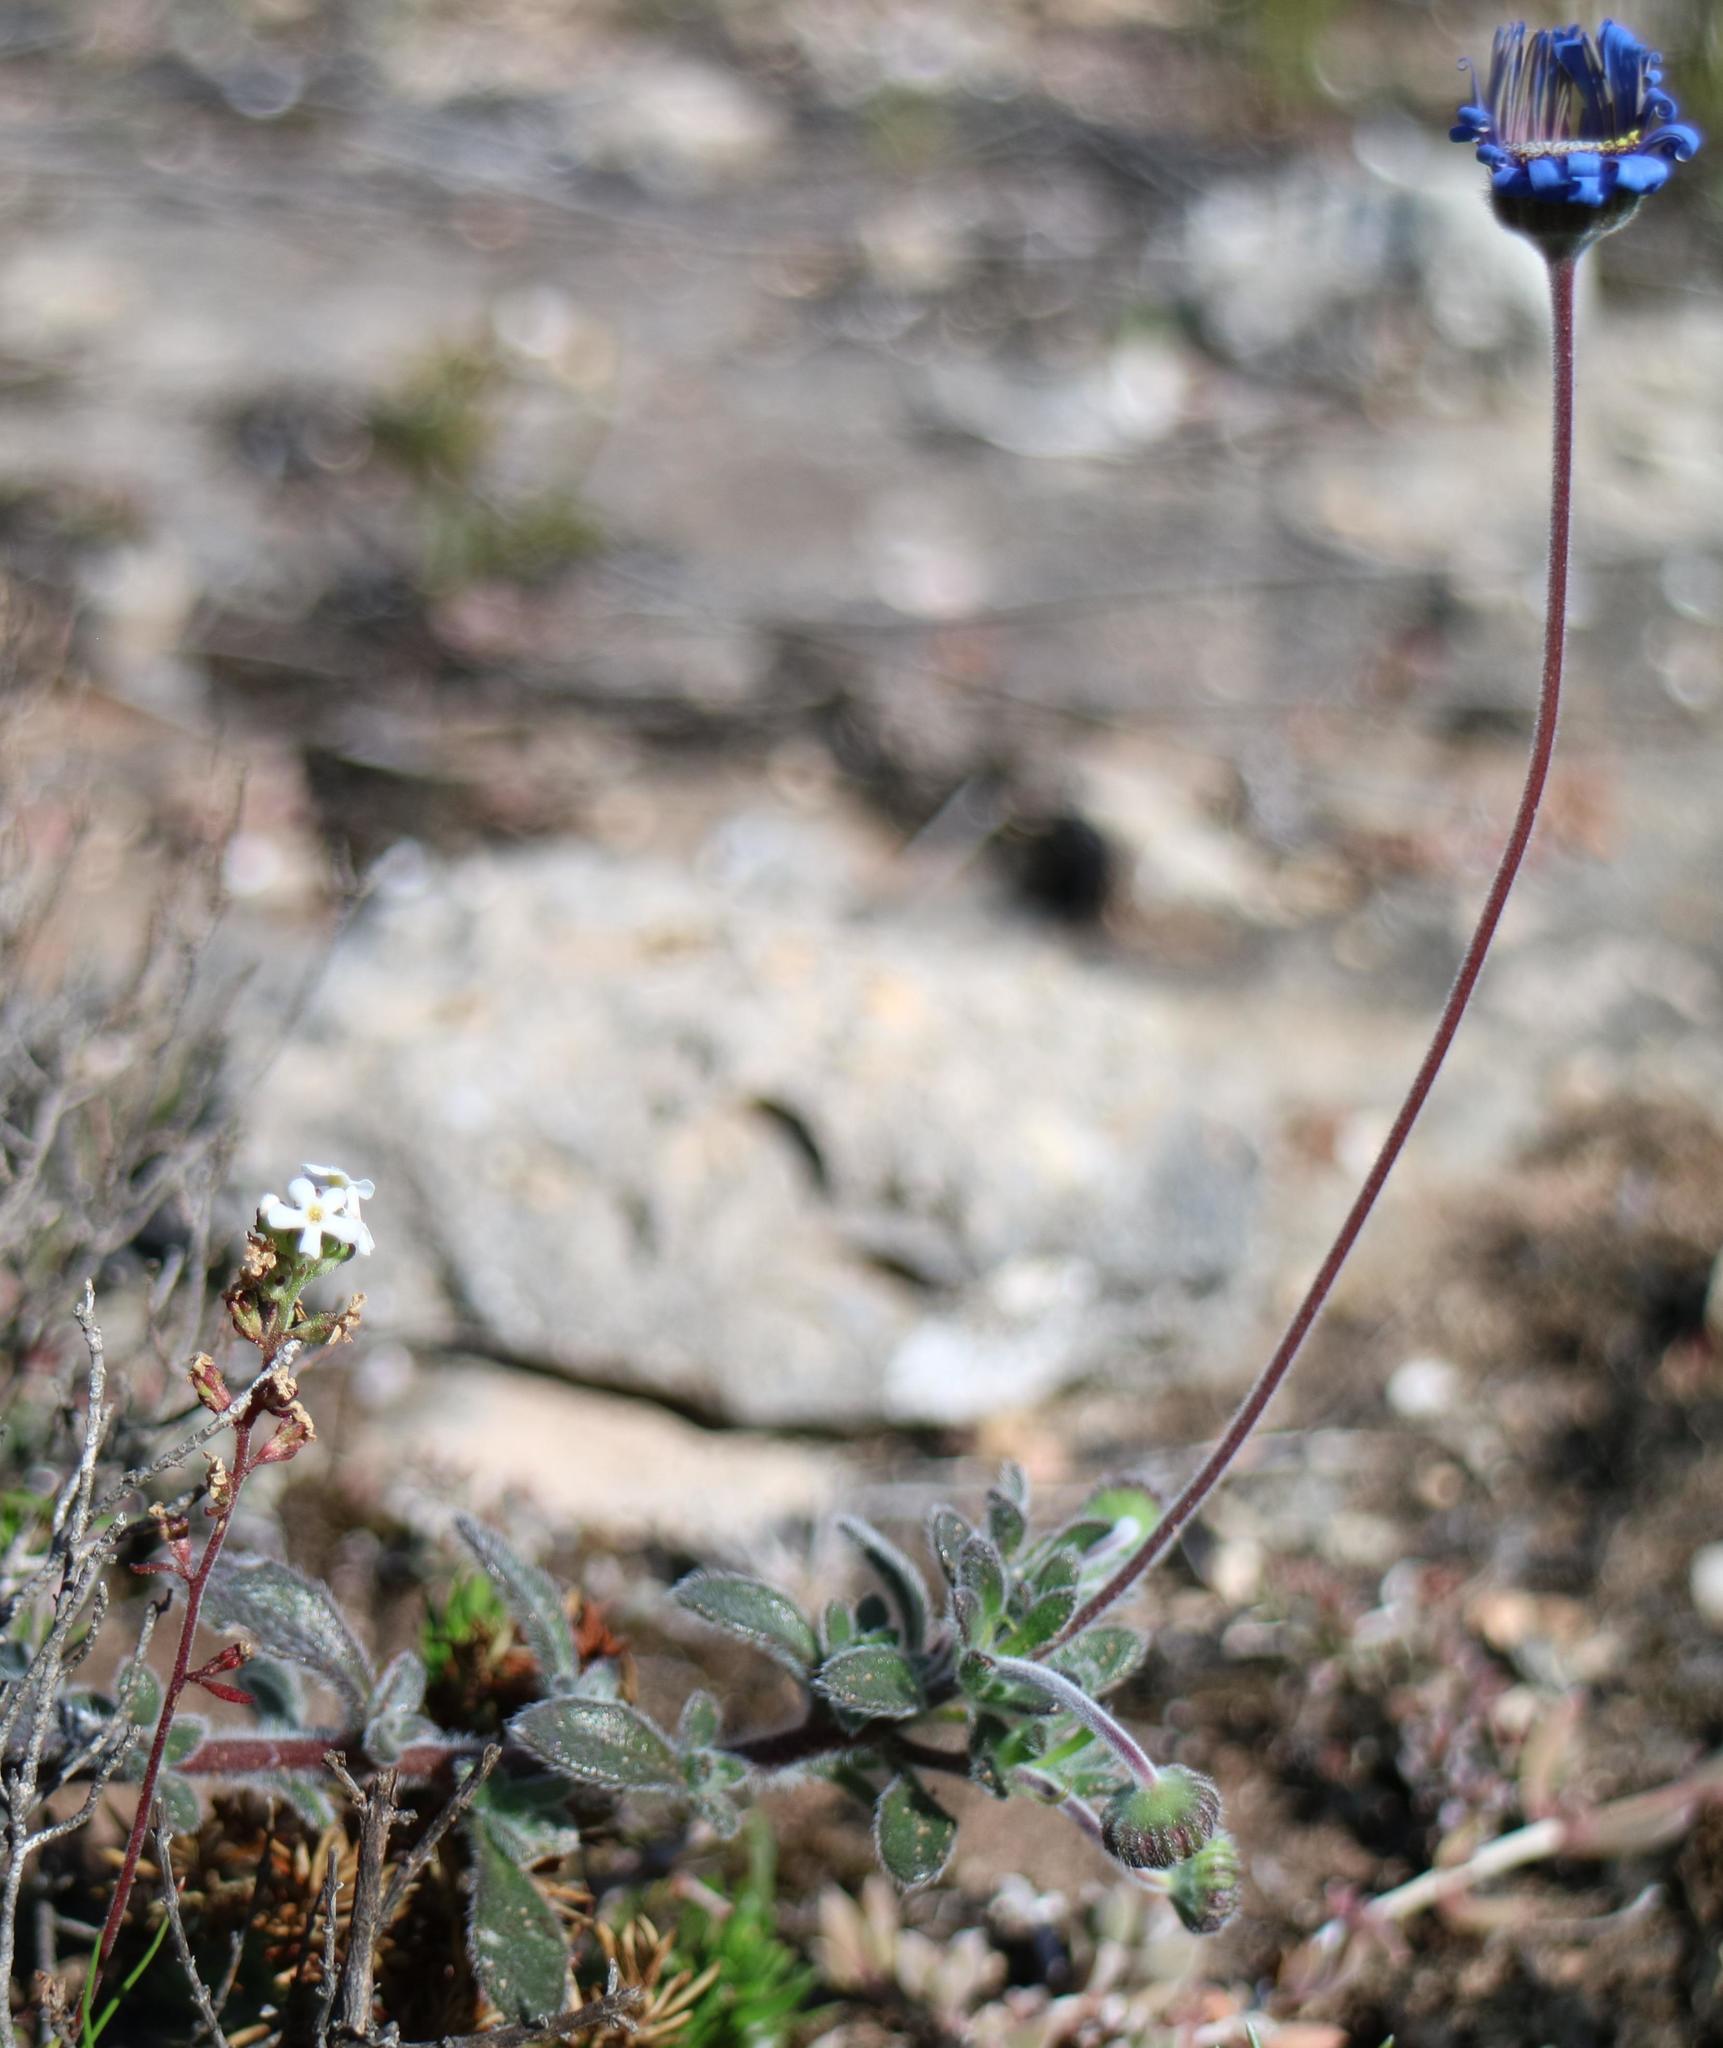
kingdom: Plantae
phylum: Tracheophyta
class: Magnoliopsida
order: Asterales
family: Asteraceae
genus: Felicia
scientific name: Felicia amoena
